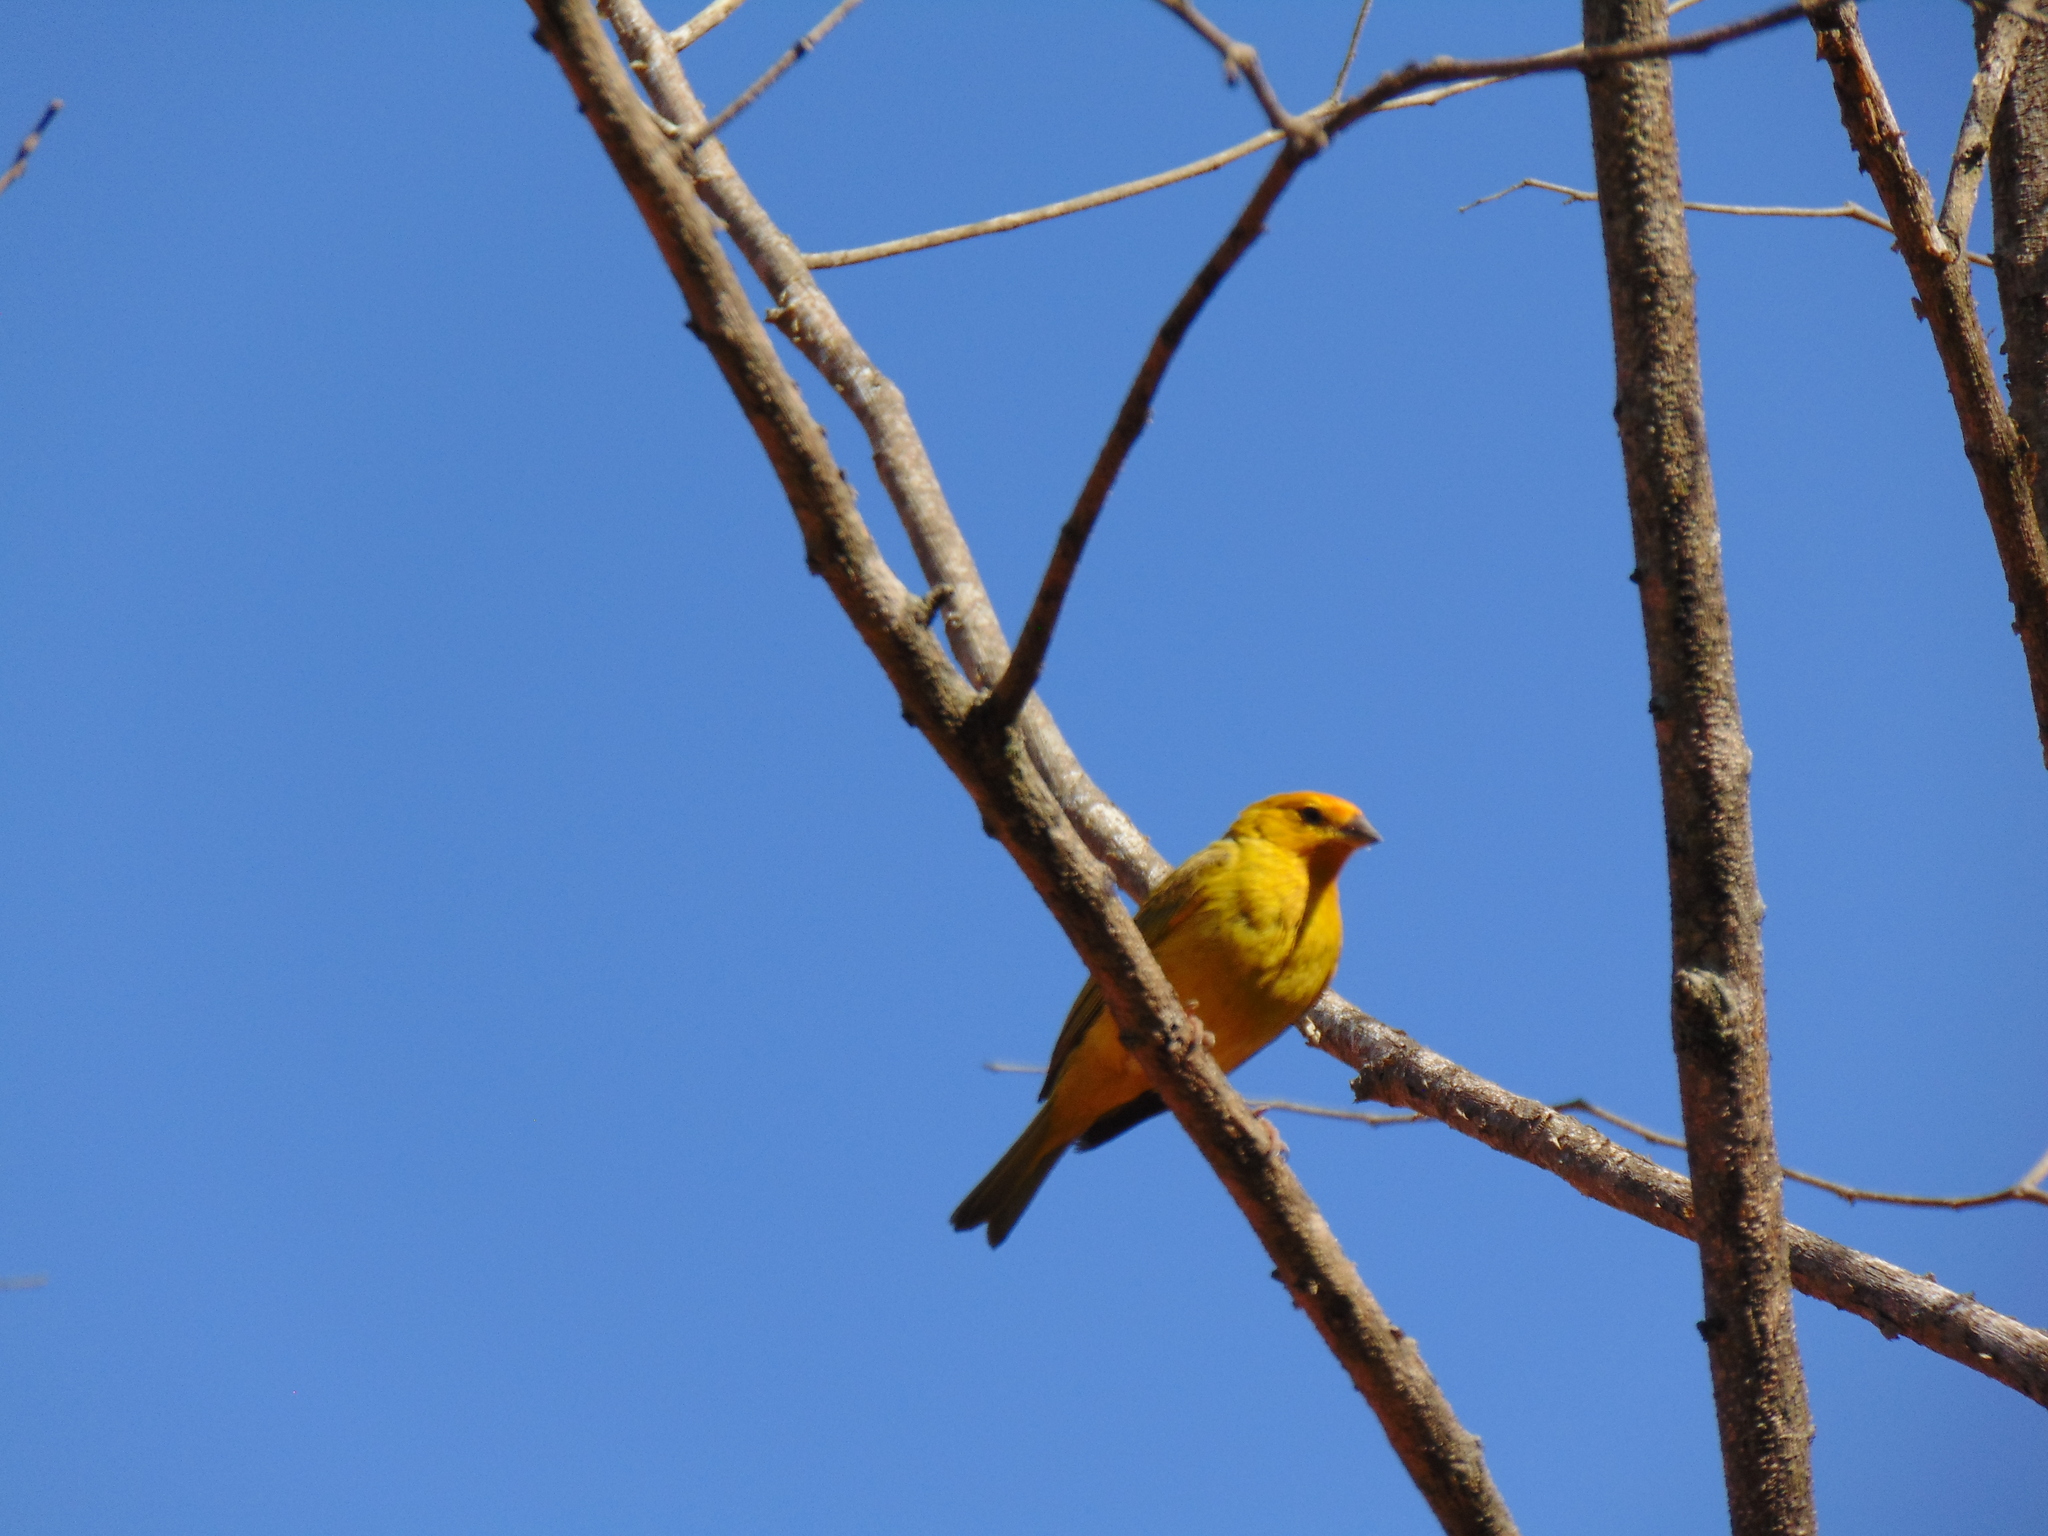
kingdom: Animalia
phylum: Chordata
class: Aves
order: Passeriformes
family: Thraupidae
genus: Sicalis
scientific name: Sicalis flaveola
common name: Saffron finch
